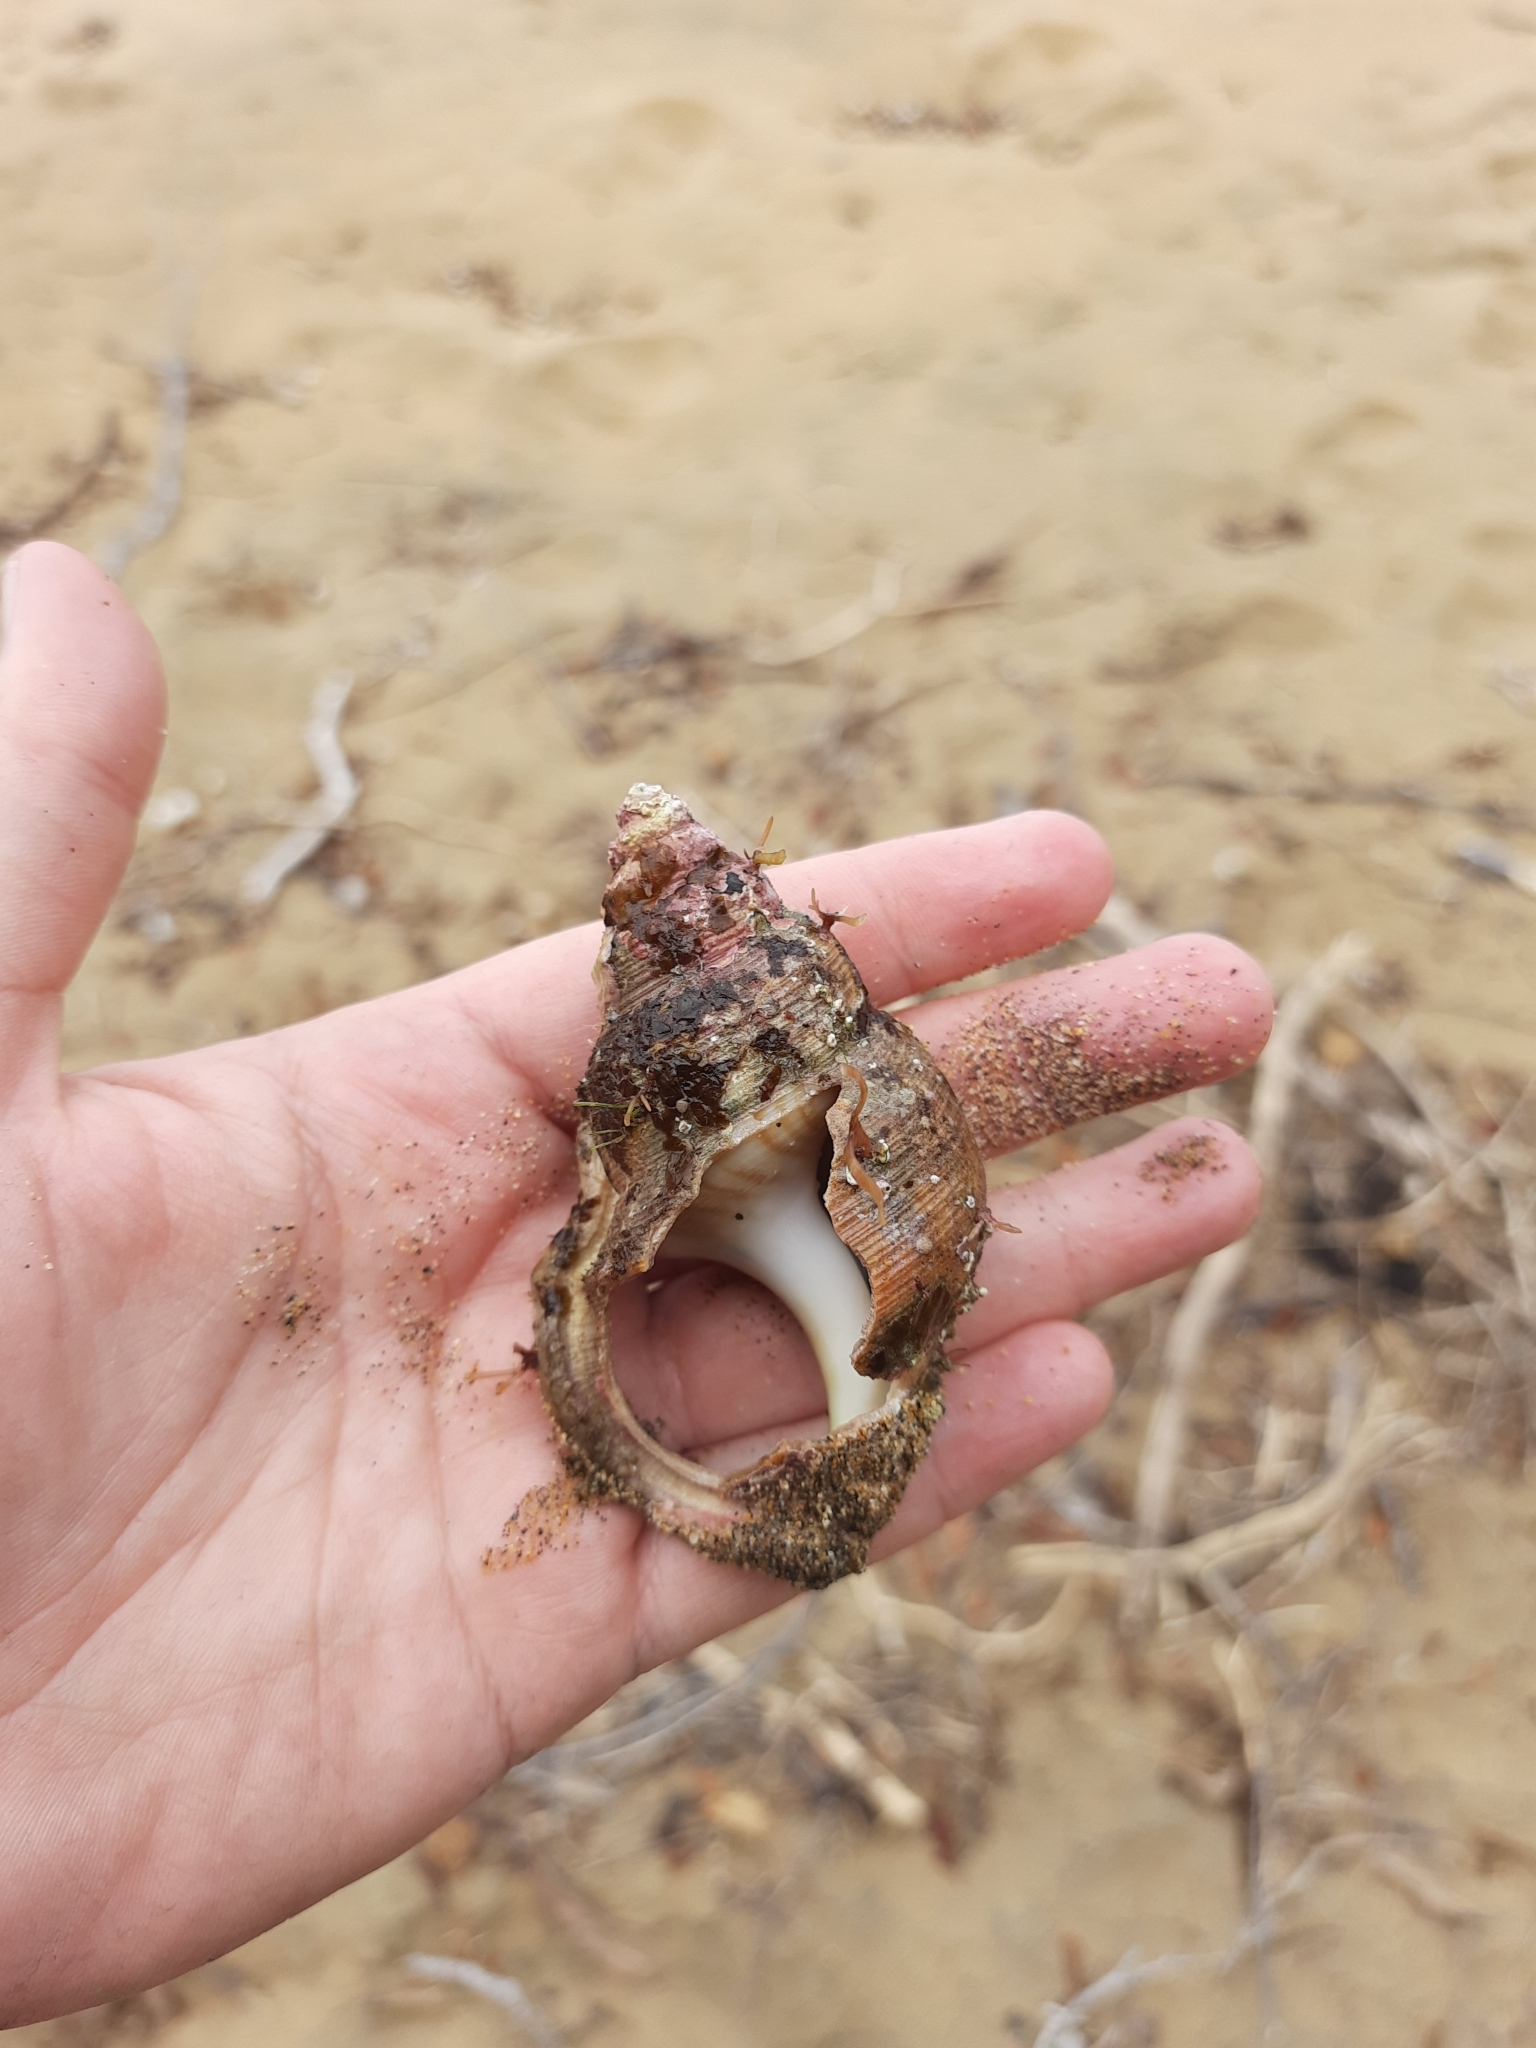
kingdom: Animalia
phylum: Mollusca
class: Gastropoda
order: Littorinimorpha
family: Struthiolariidae
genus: Struthiolaria
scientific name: Struthiolaria papulosa
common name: Large ostrich foot
